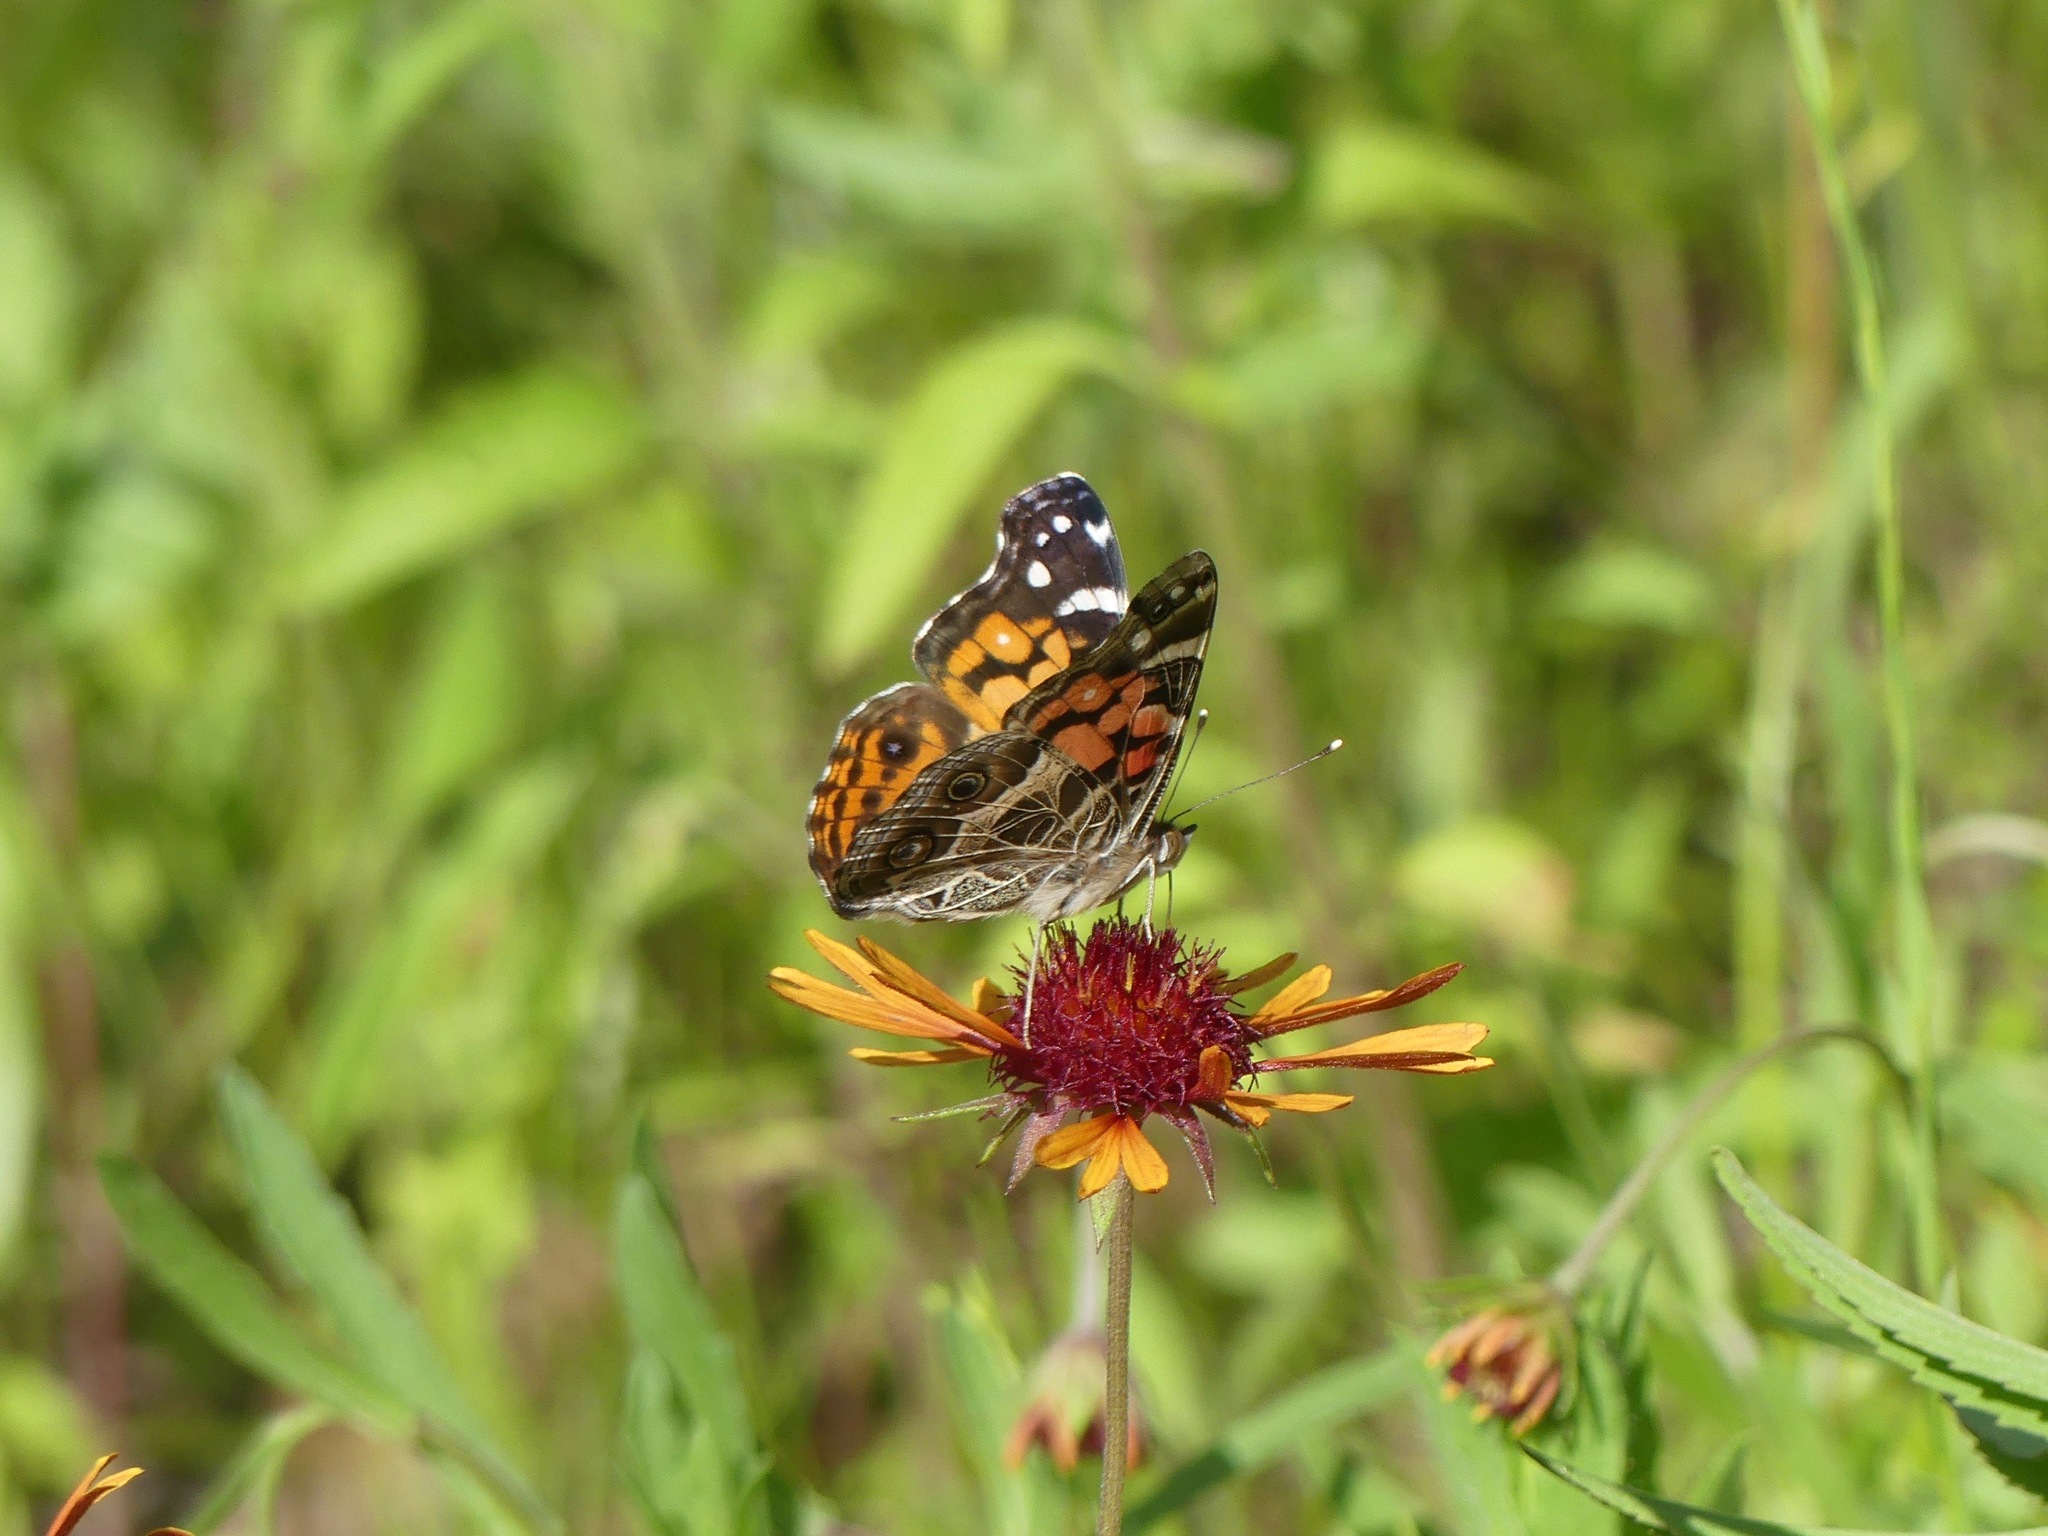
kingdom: Animalia
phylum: Arthropoda
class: Insecta
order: Lepidoptera
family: Nymphalidae
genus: Vanessa
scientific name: Vanessa virginiensis
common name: American lady
